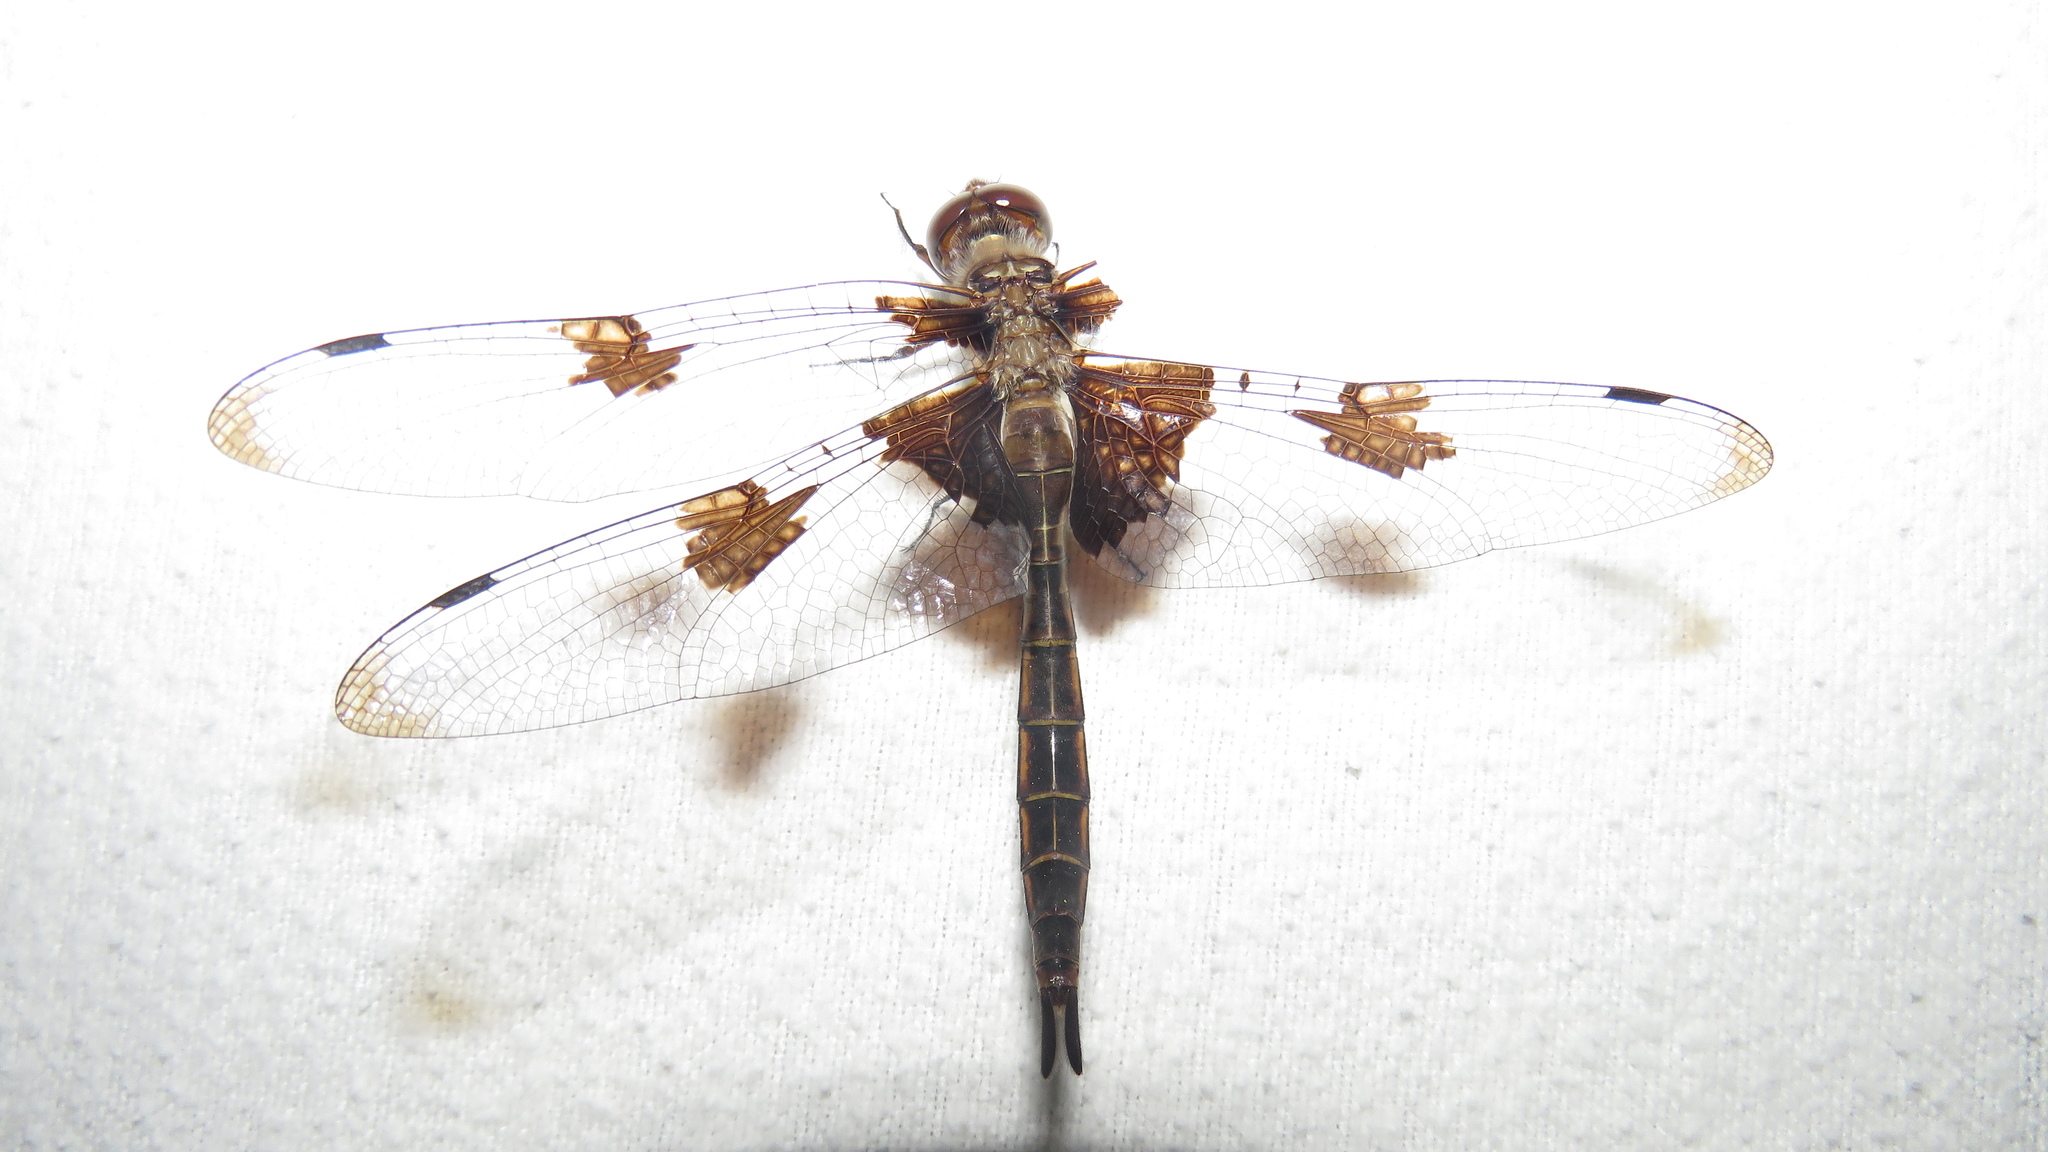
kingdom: Animalia
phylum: Arthropoda
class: Insecta
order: Odonata
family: Corduliidae
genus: Epitheca
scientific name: Epitheca princeps
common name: Prince baskettail
